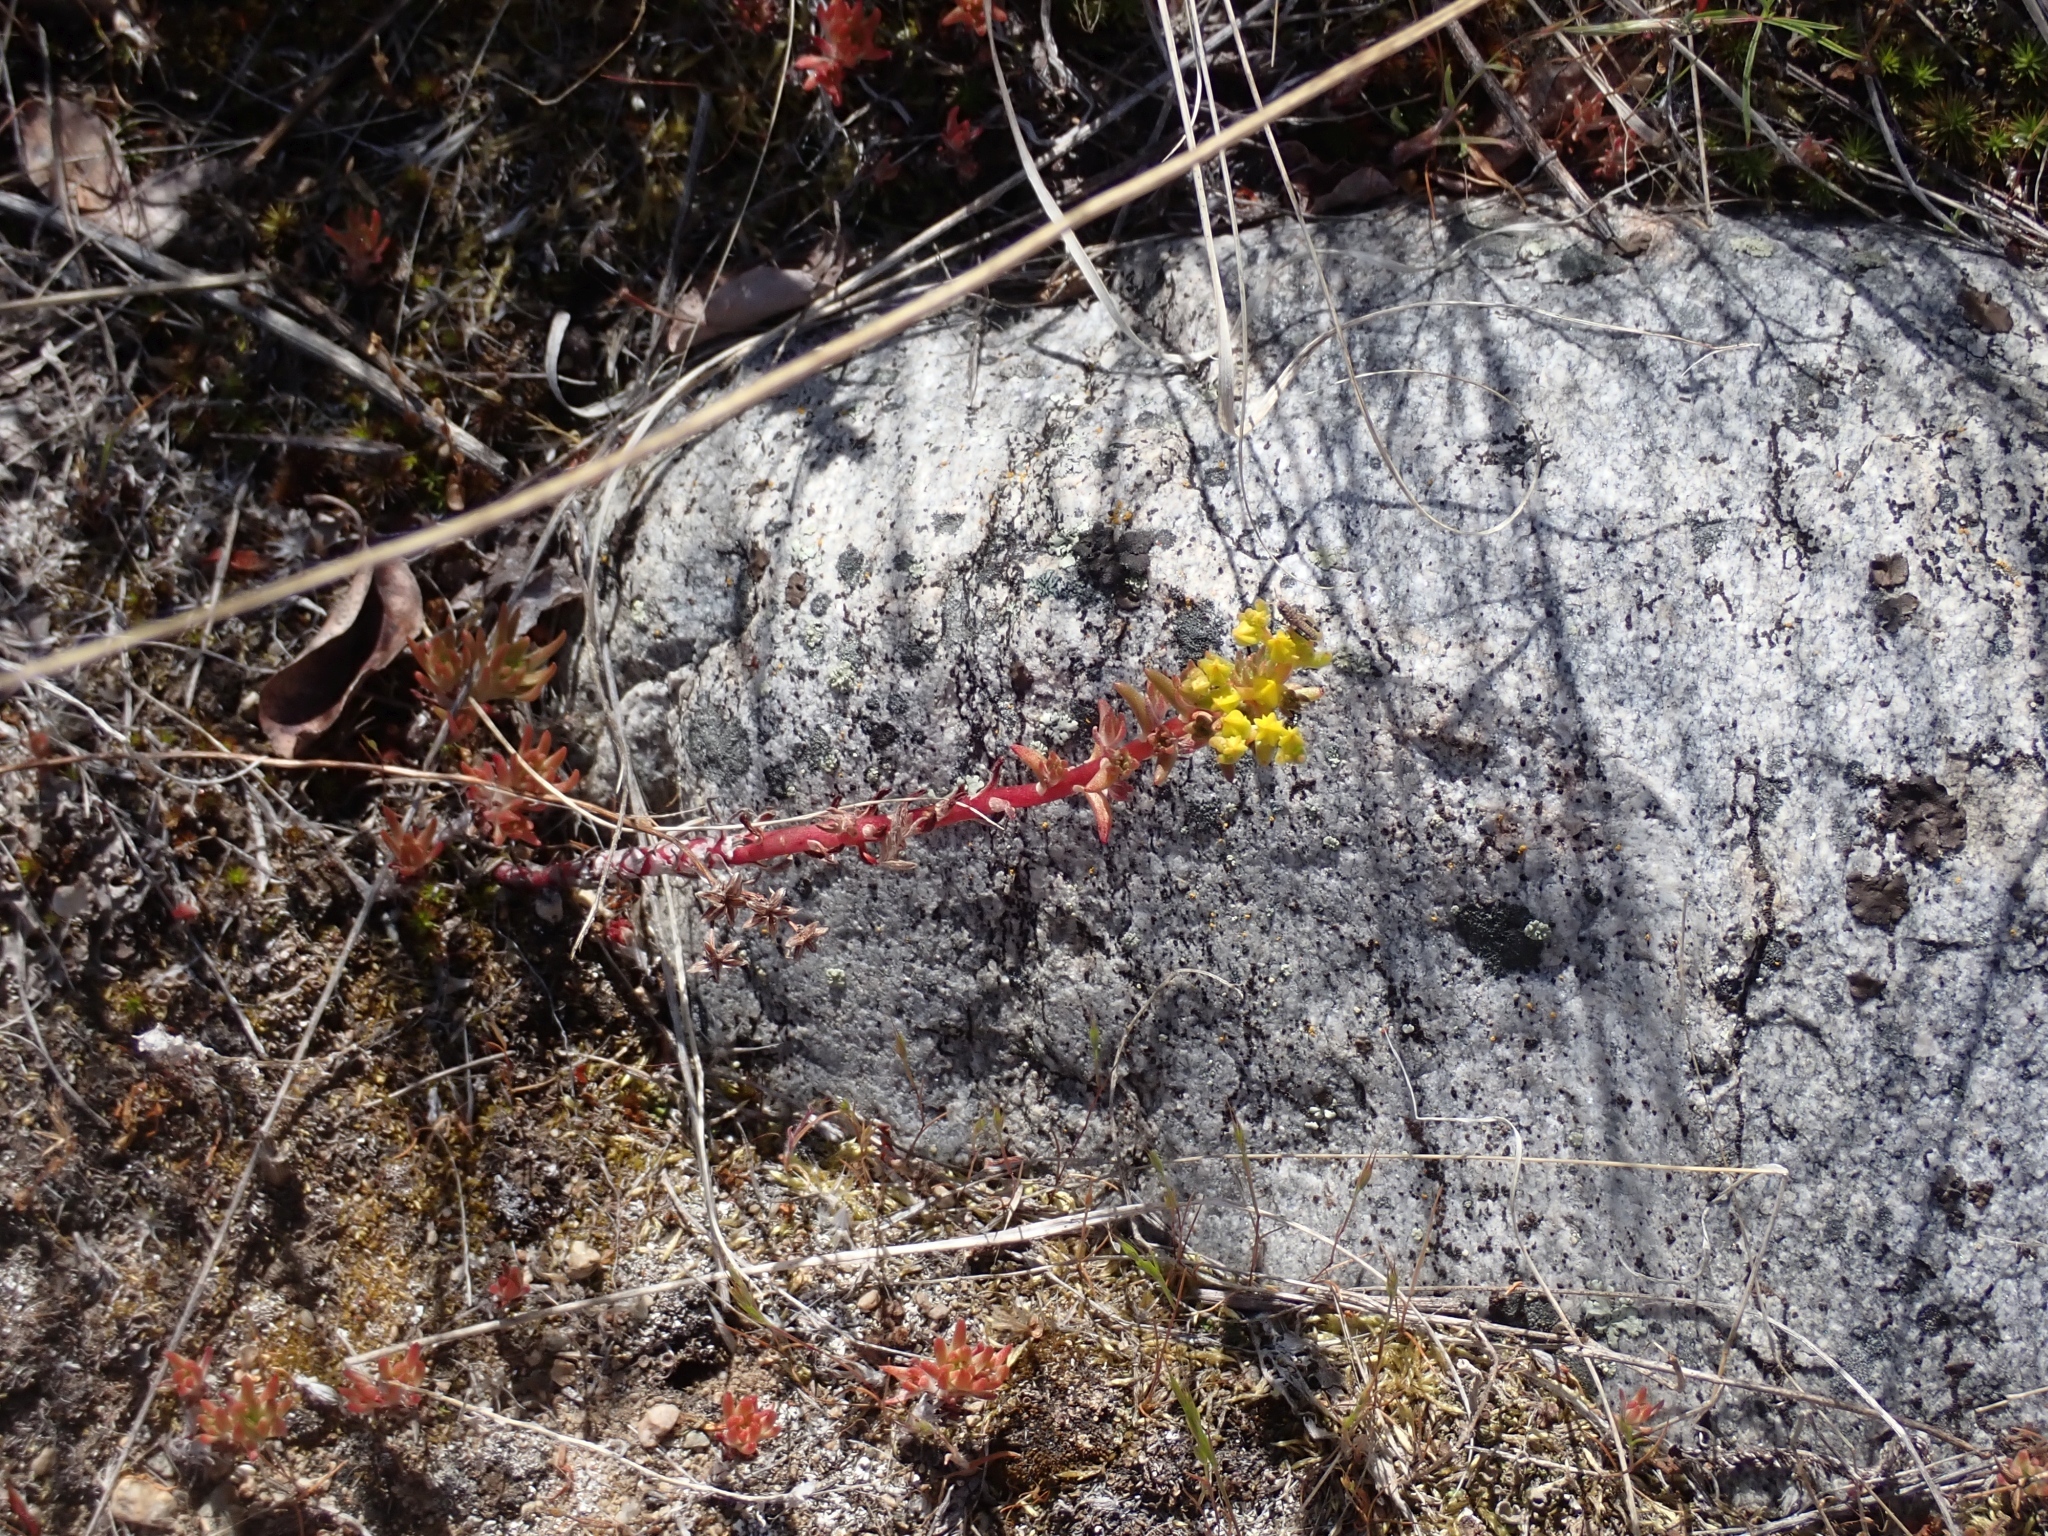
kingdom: Plantae
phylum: Tracheophyta
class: Magnoliopsida
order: Saxifragales
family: Crassulaceae
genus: Sedum
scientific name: Sedum stenopetalum
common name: Narrow-petaled stonecrop
